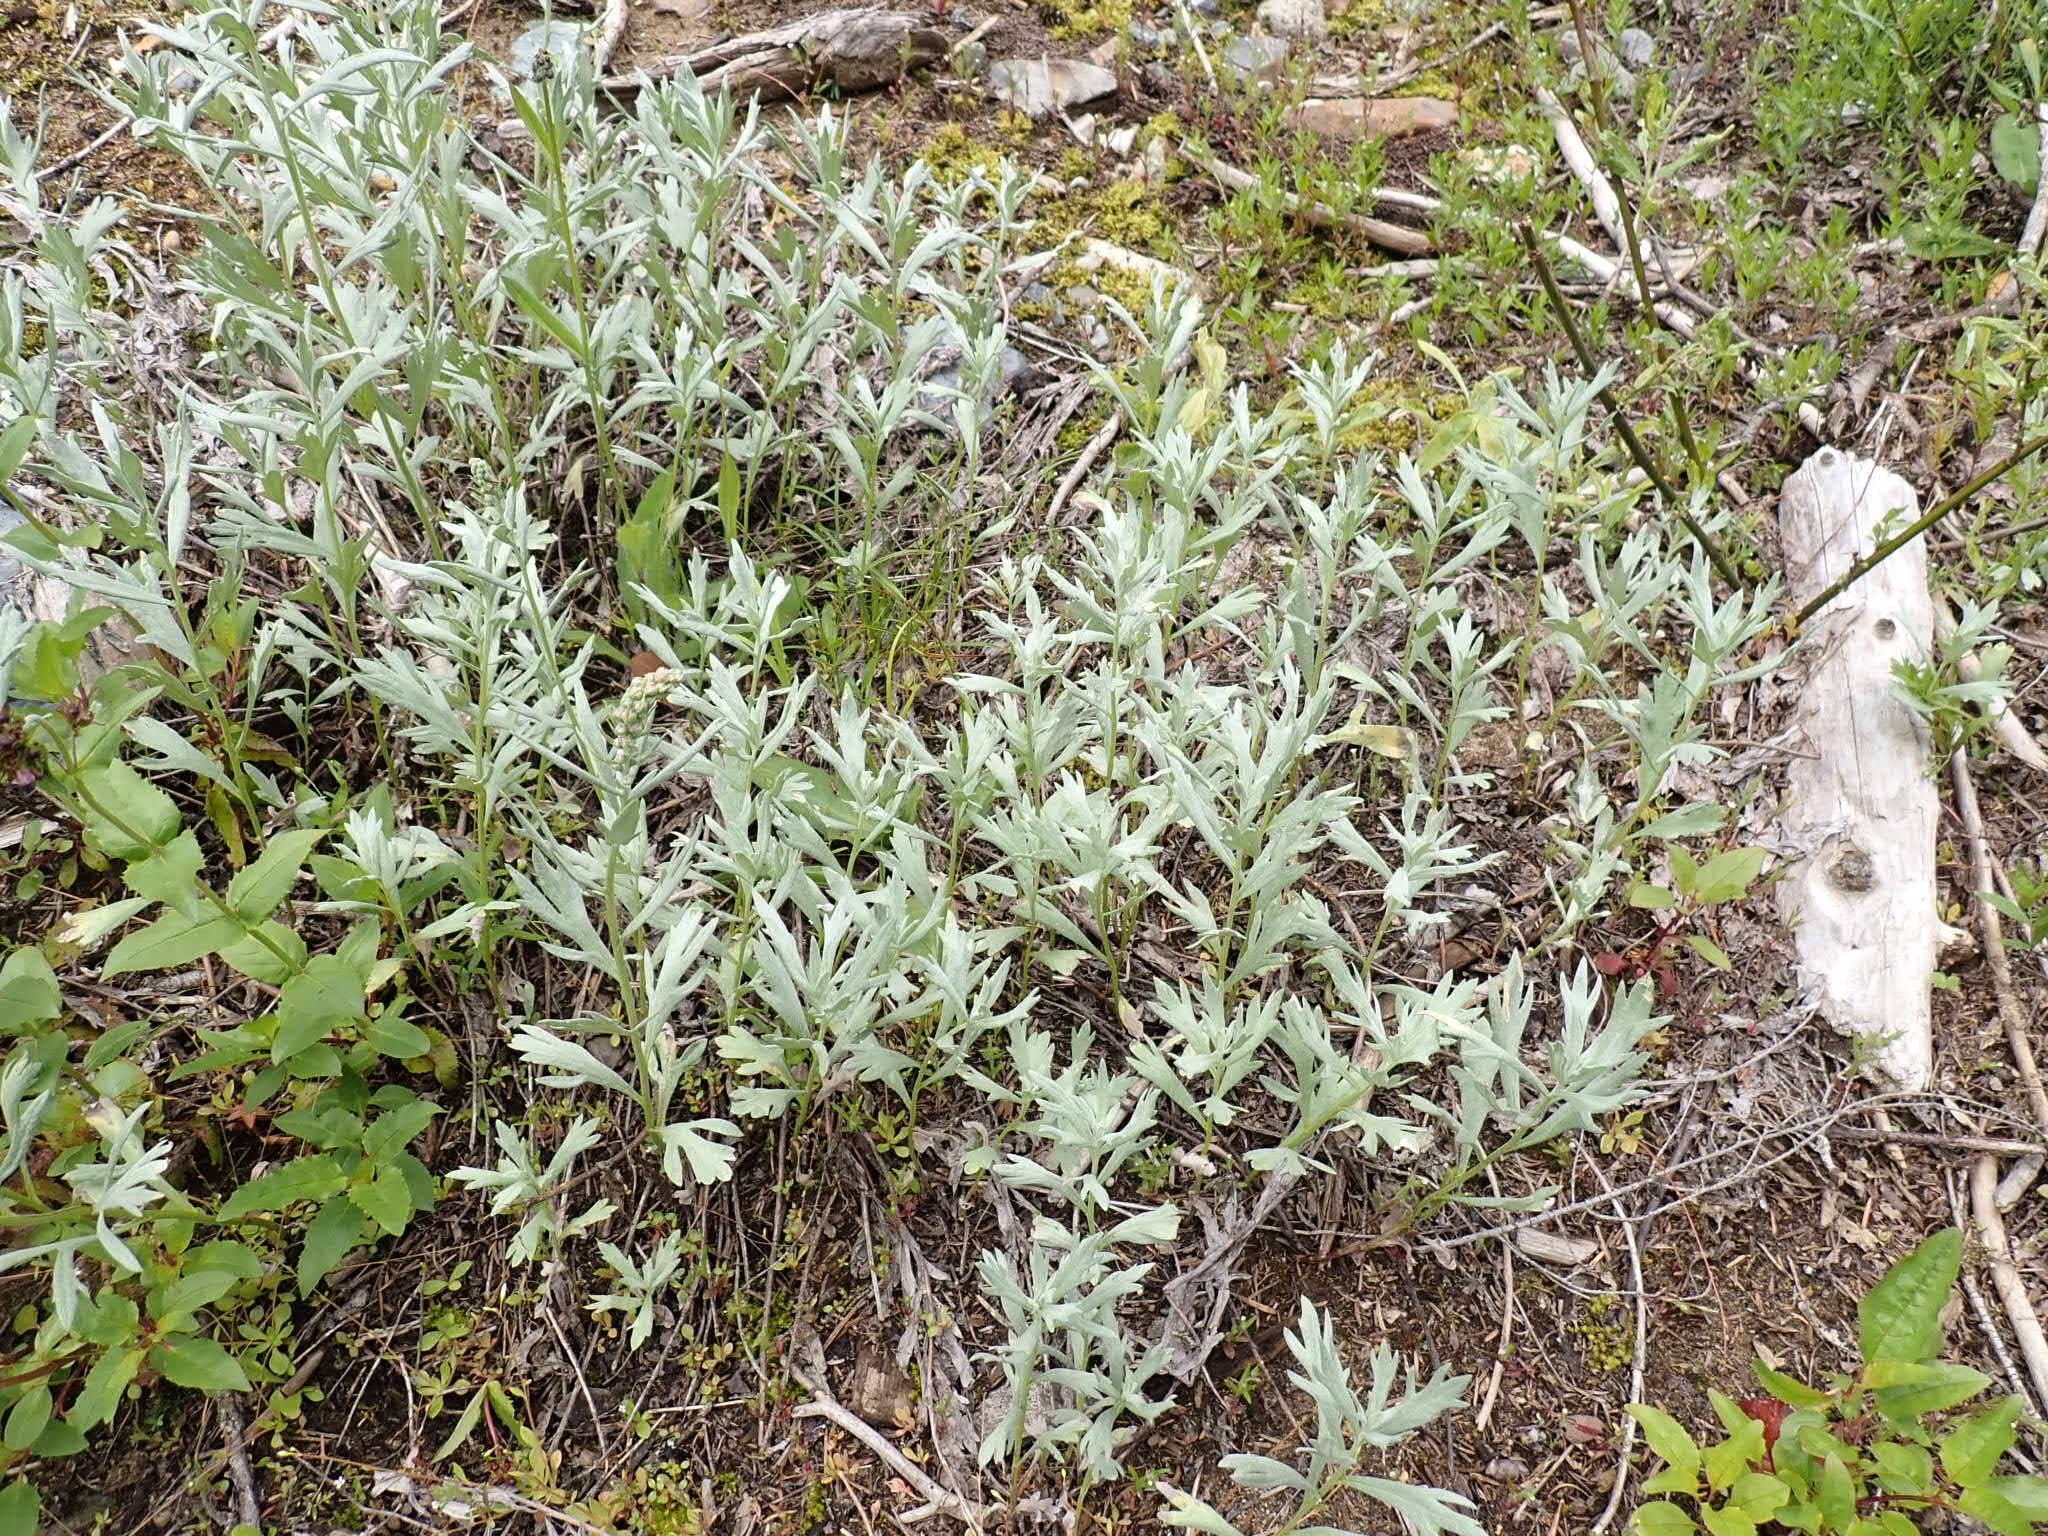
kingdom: Plantae
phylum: Tracheophyta
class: Magnoliopsida
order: Asterales
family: Asteraceae
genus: Artemisia
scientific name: Artemisia ludoviciana
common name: Western mugwort
